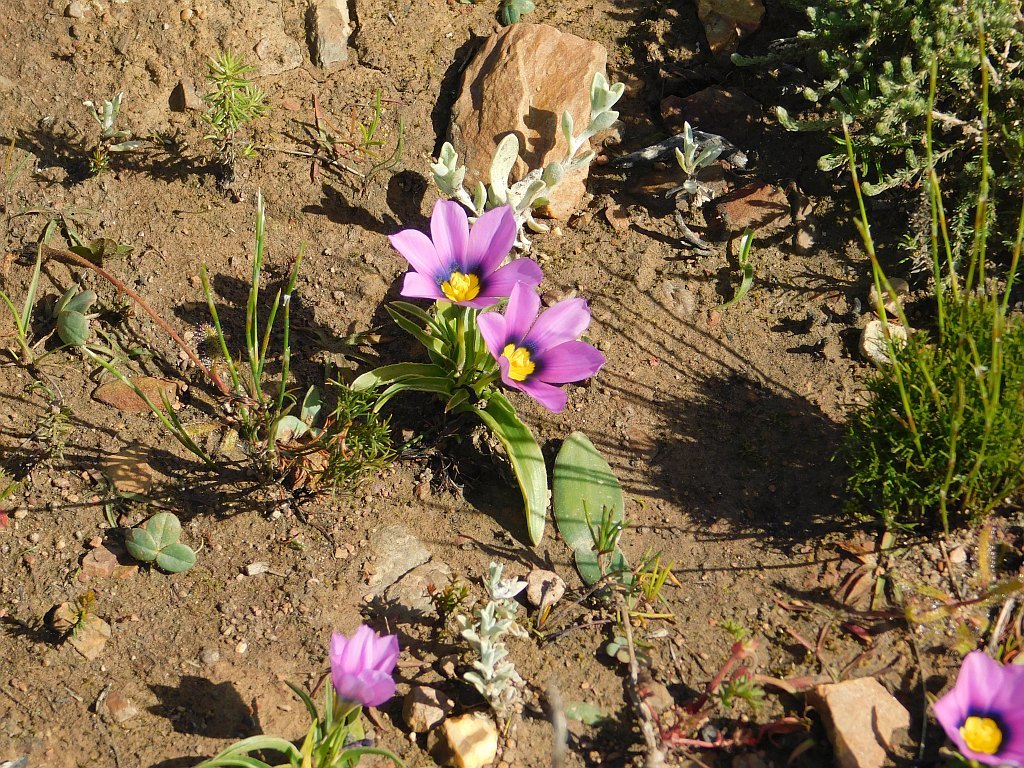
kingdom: Plantae
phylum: Tracheophyta
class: Liliopsida
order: Asparagales
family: Iridaceae
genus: Moraea
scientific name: Moraea barnardiella
